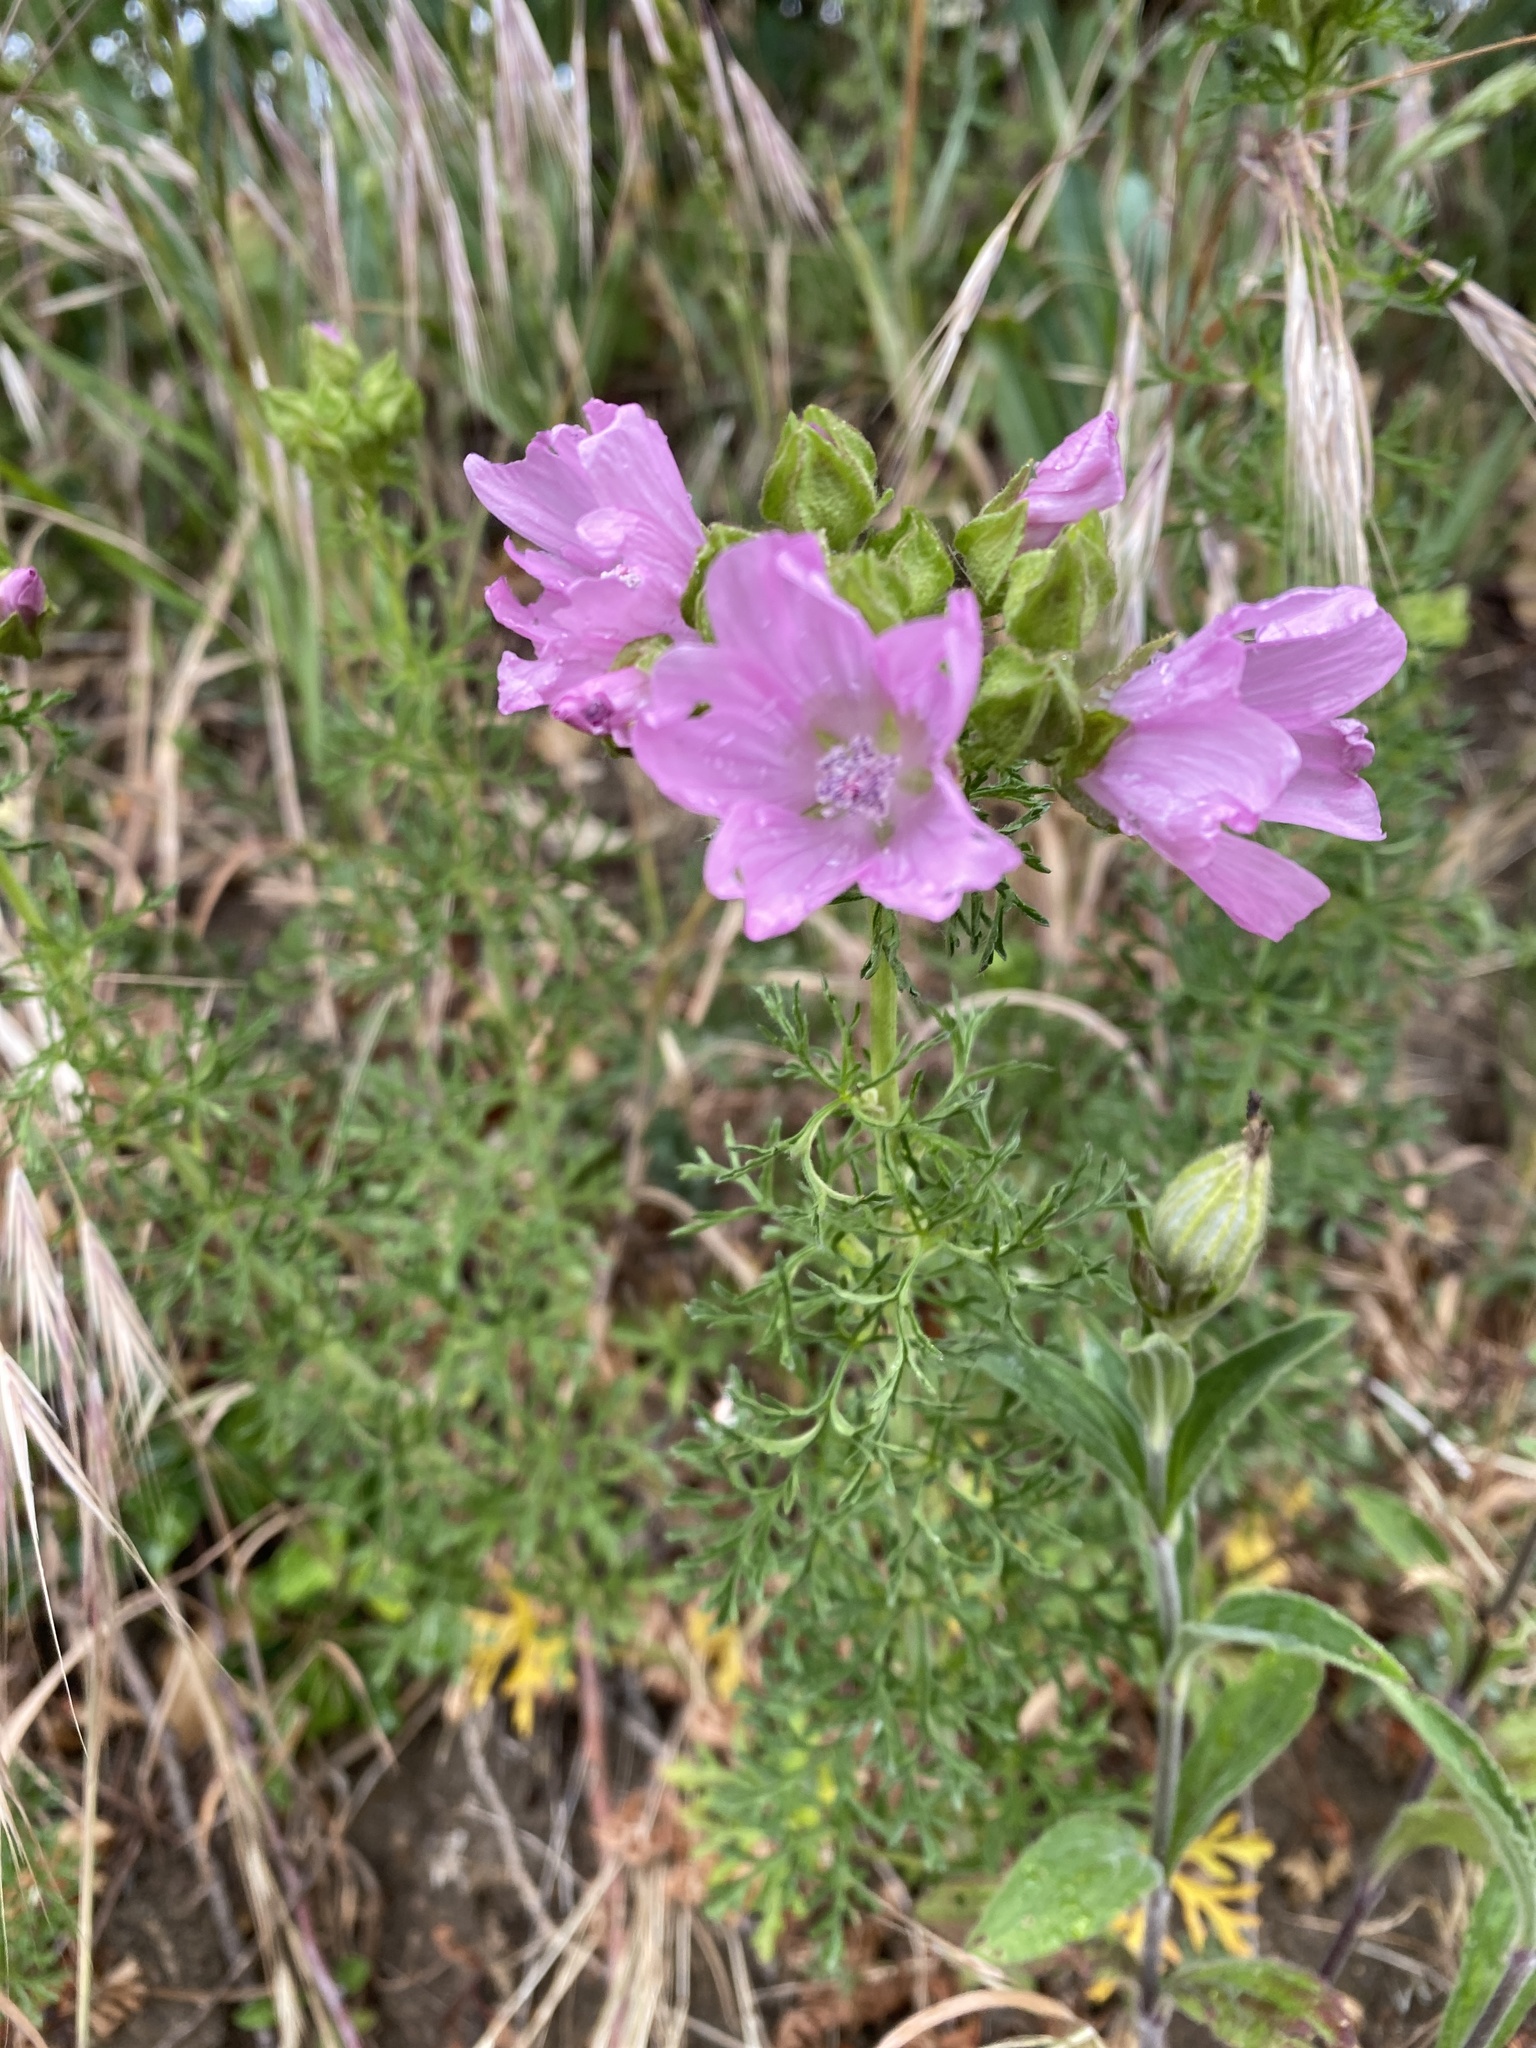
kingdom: Plantae
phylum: Tracheophyta
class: Magnoliopsida
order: Malvales
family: Malvaceae
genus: Malva
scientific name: Malva moschata
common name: Musk mallow
